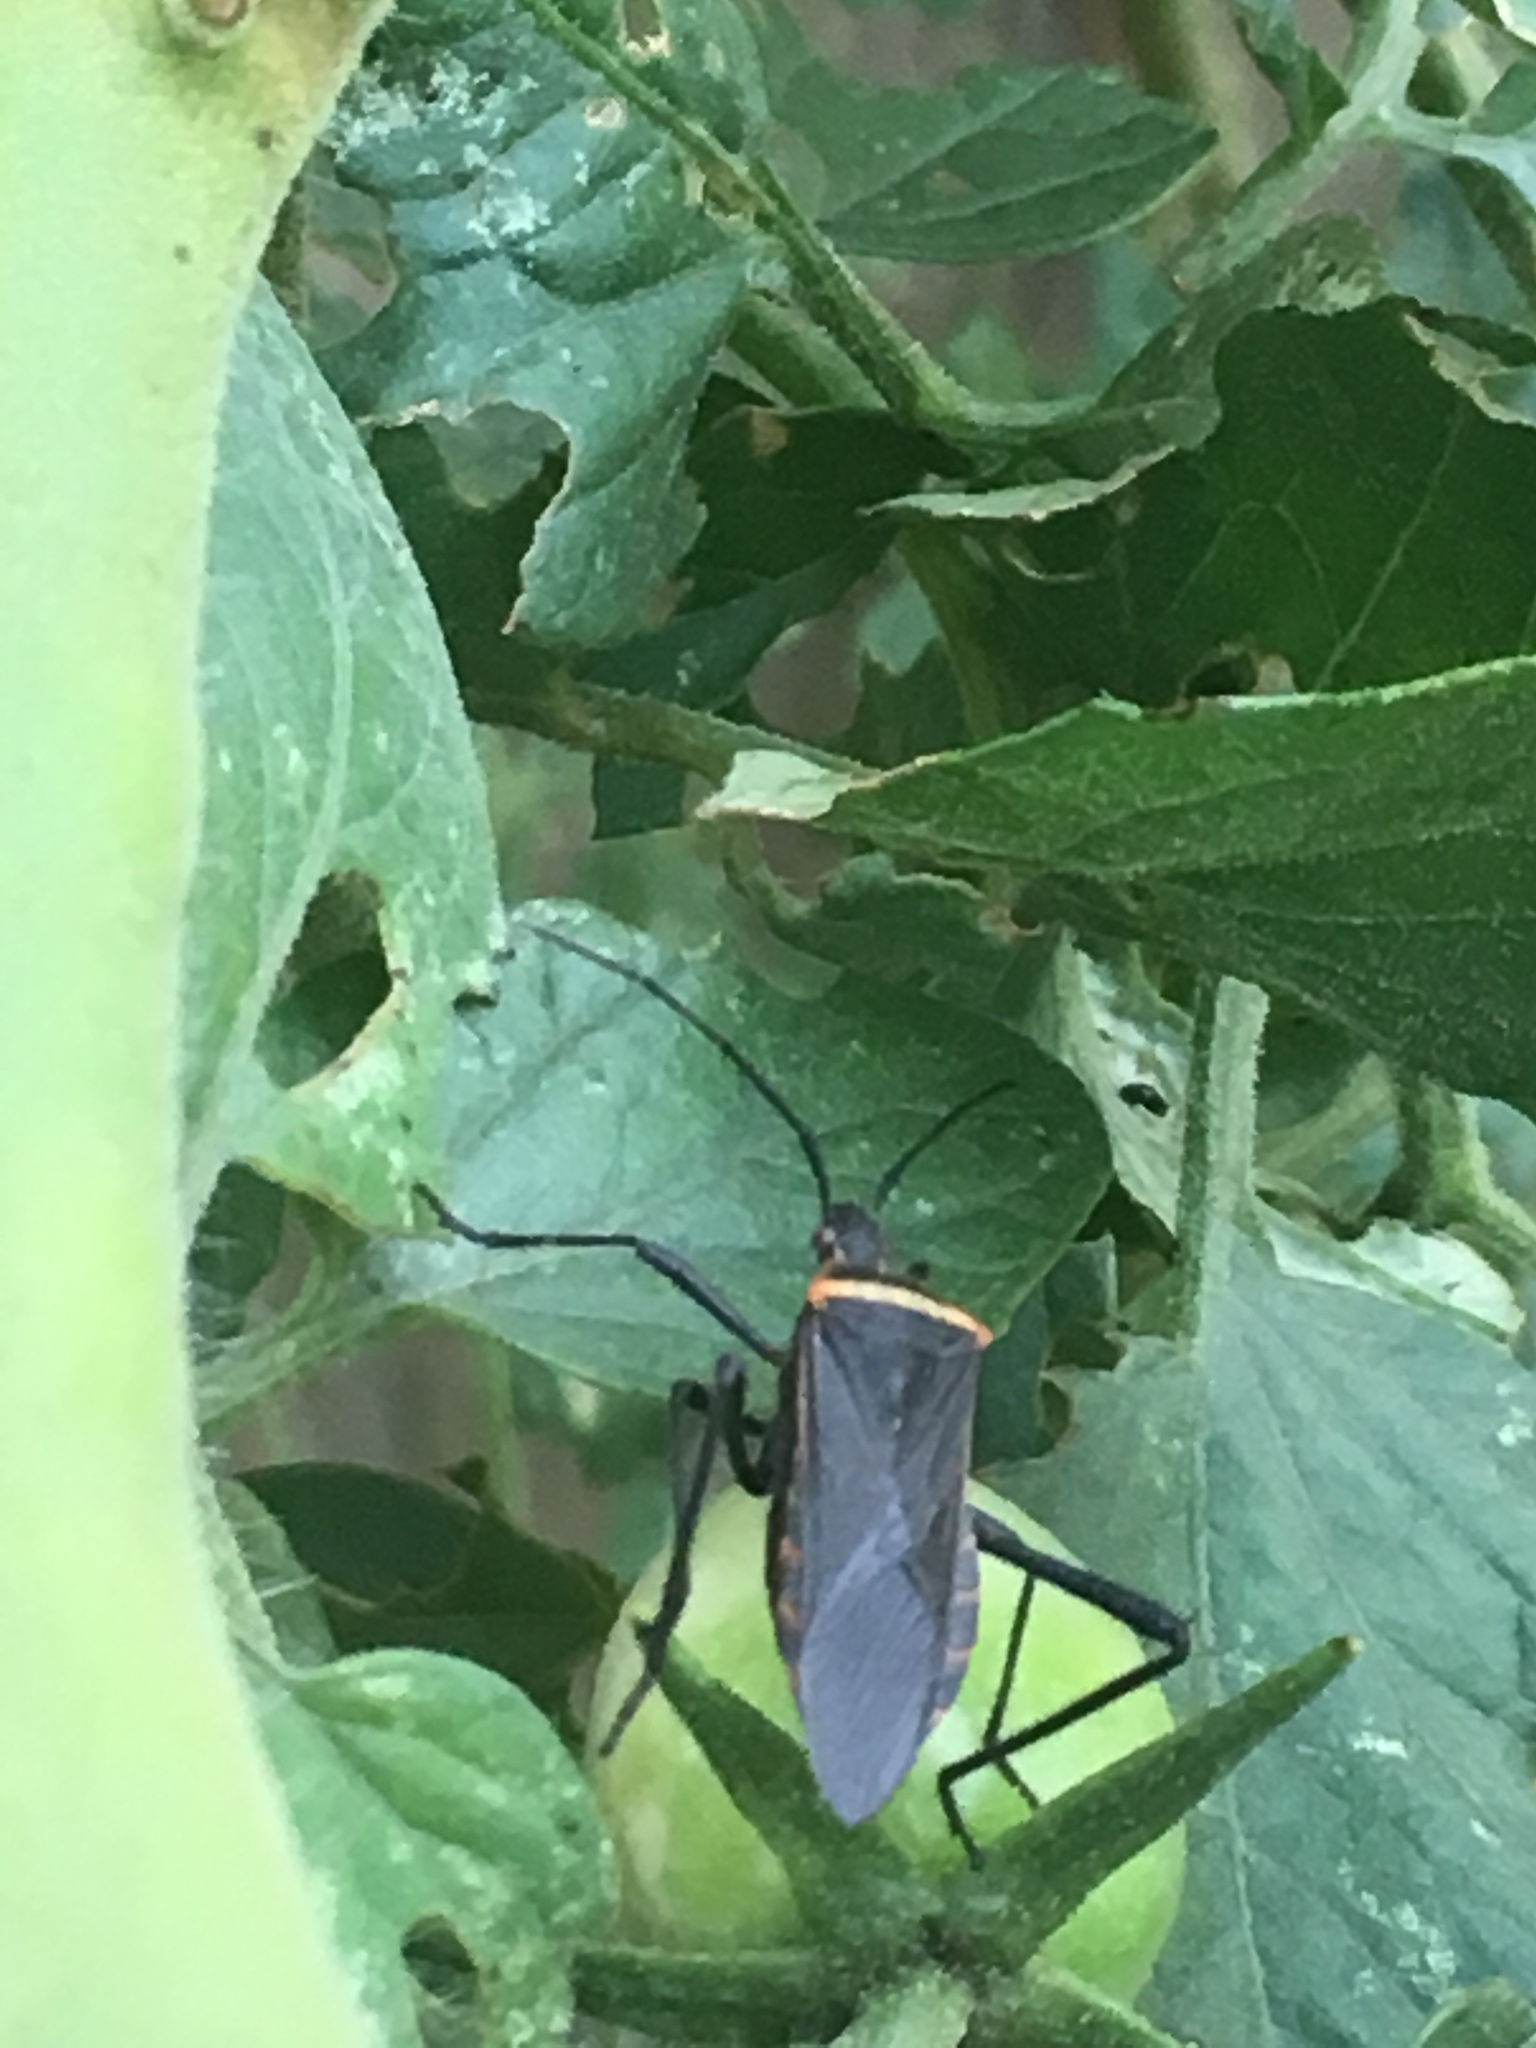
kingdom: Animalia
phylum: Arthropoda
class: Insecta
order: Hemiptera
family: Coreidae
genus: Phthiacnemia
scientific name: Phthiacnemia picta
